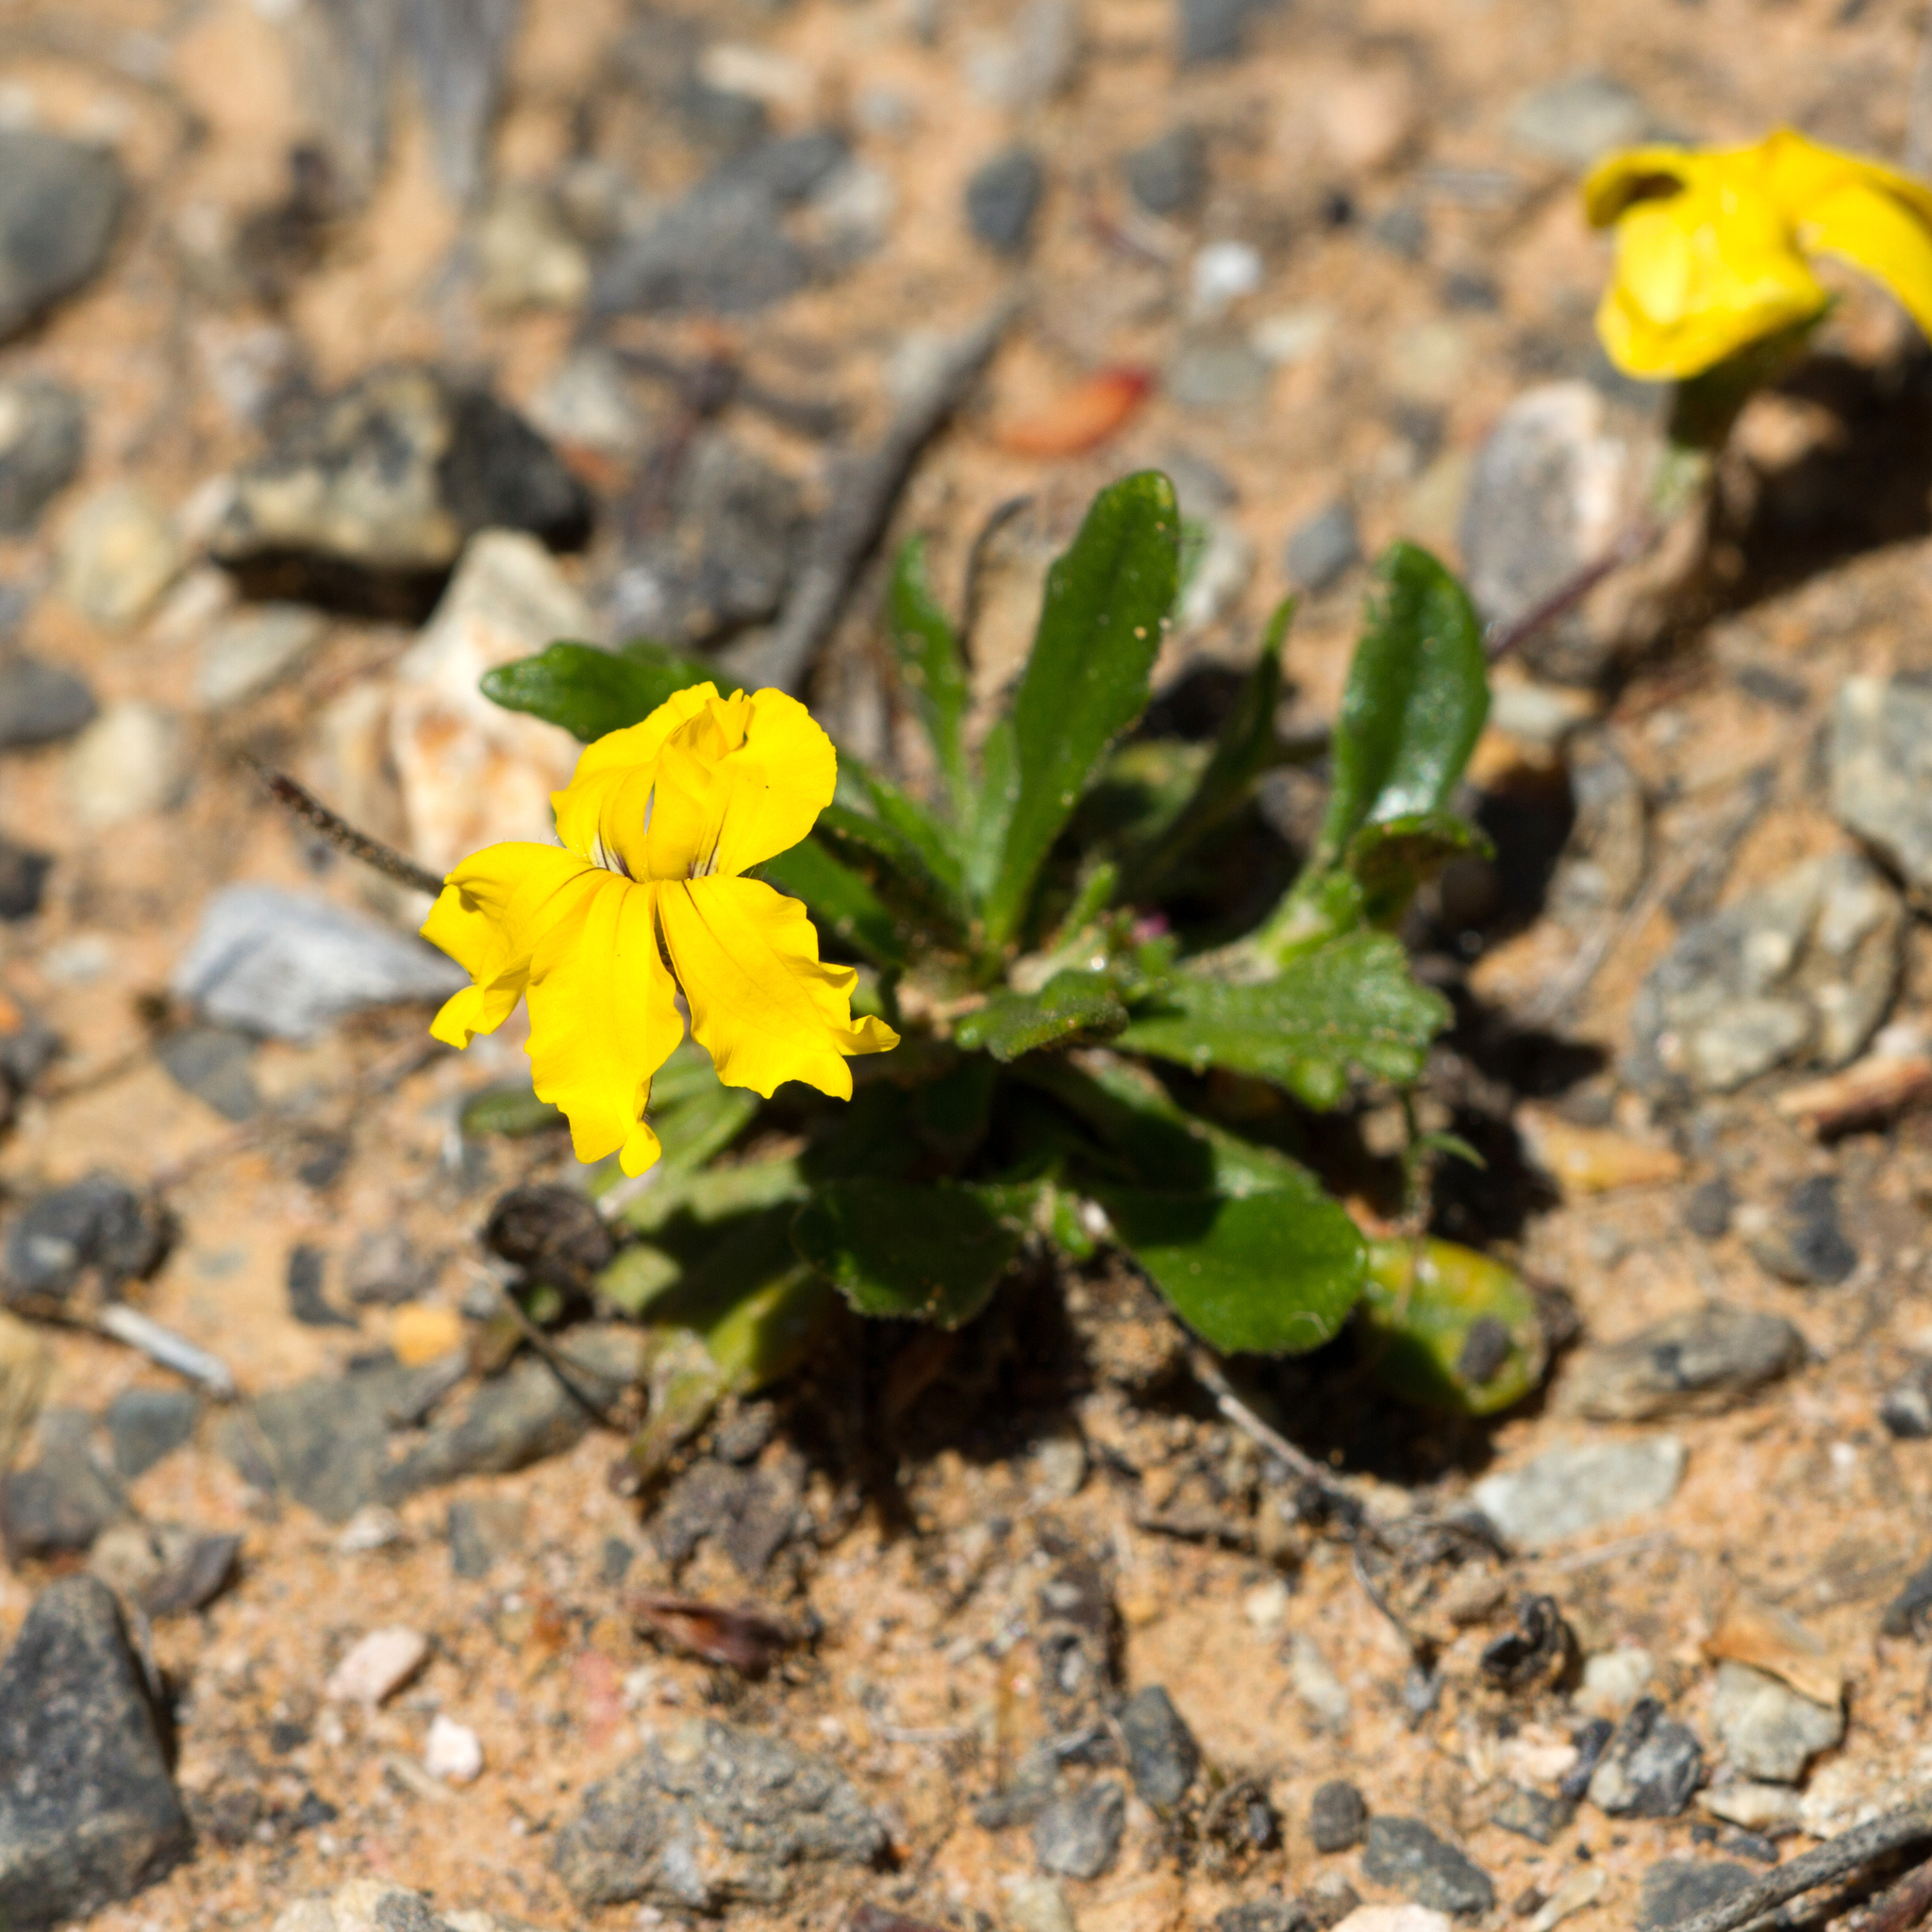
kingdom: Plantae
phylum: Tracheophyta
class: Magnoliopsida
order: Asterales
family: Goodeniaceae
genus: Goodenia
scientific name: Goodenia blackiana
